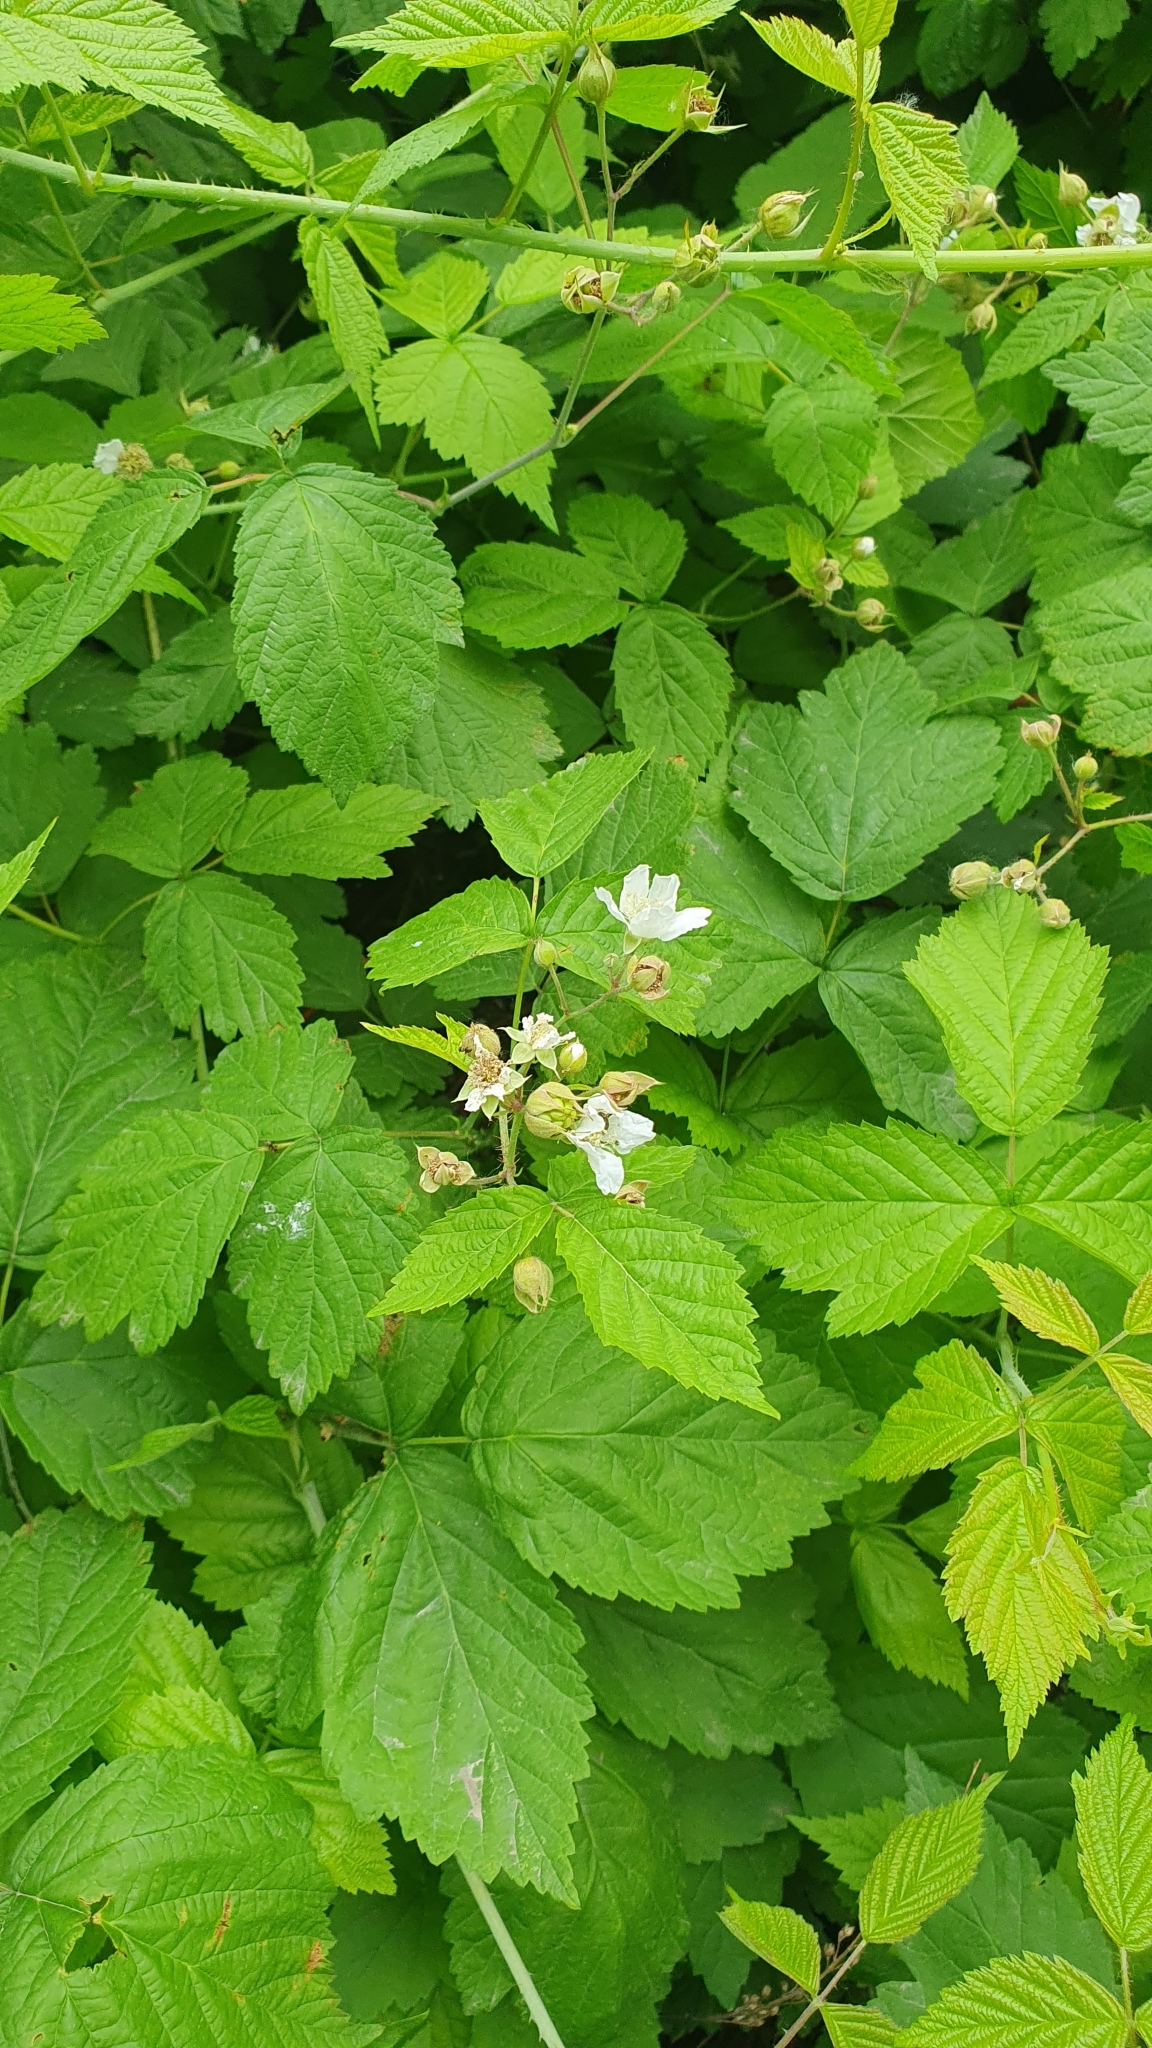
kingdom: Plantae
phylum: Tracheophyta
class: Magnoliopsida
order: Rosales
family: Rosaceae
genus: Rubus
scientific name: Rubus caesius
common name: Dewberry
